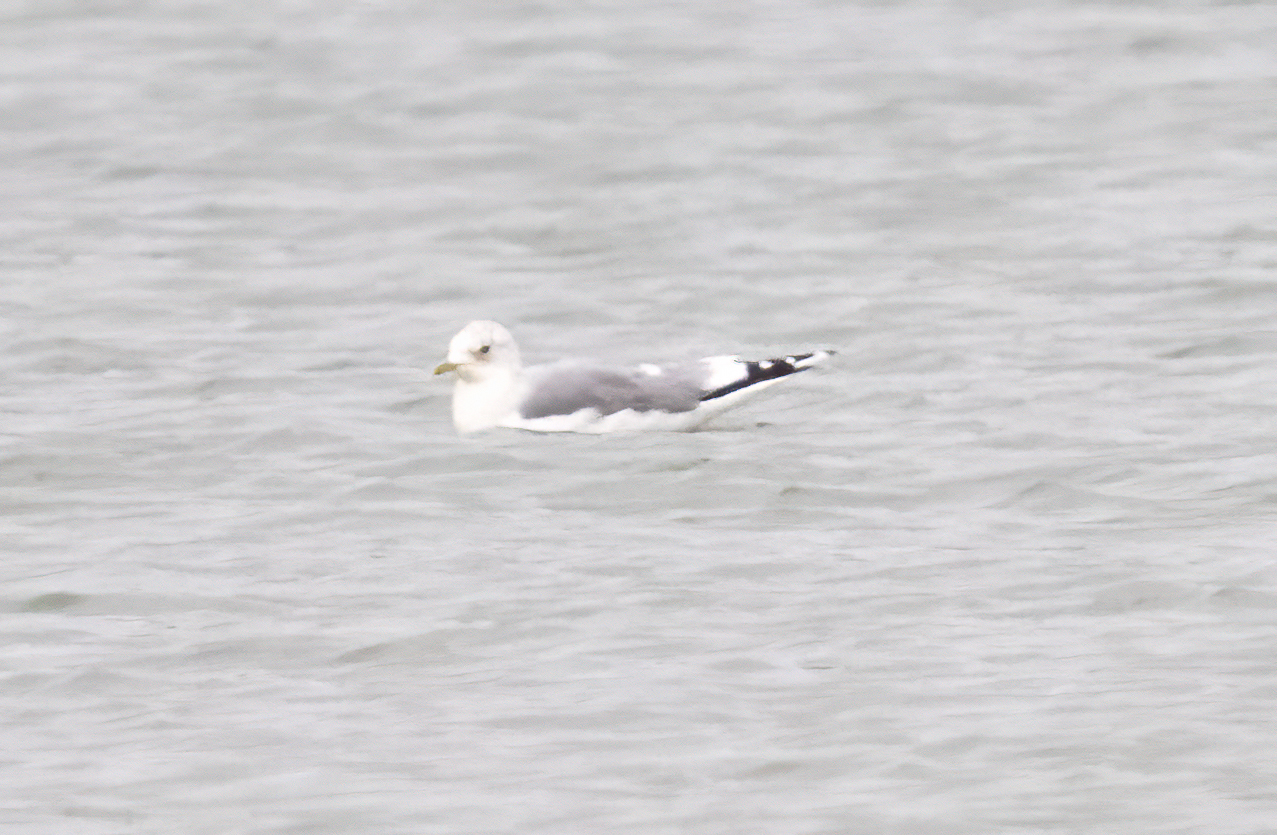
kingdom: Animalia
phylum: Chordata
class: Aves
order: Charadriiformes
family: Laridae
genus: Larus
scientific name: Larus canus
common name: Mew gull
